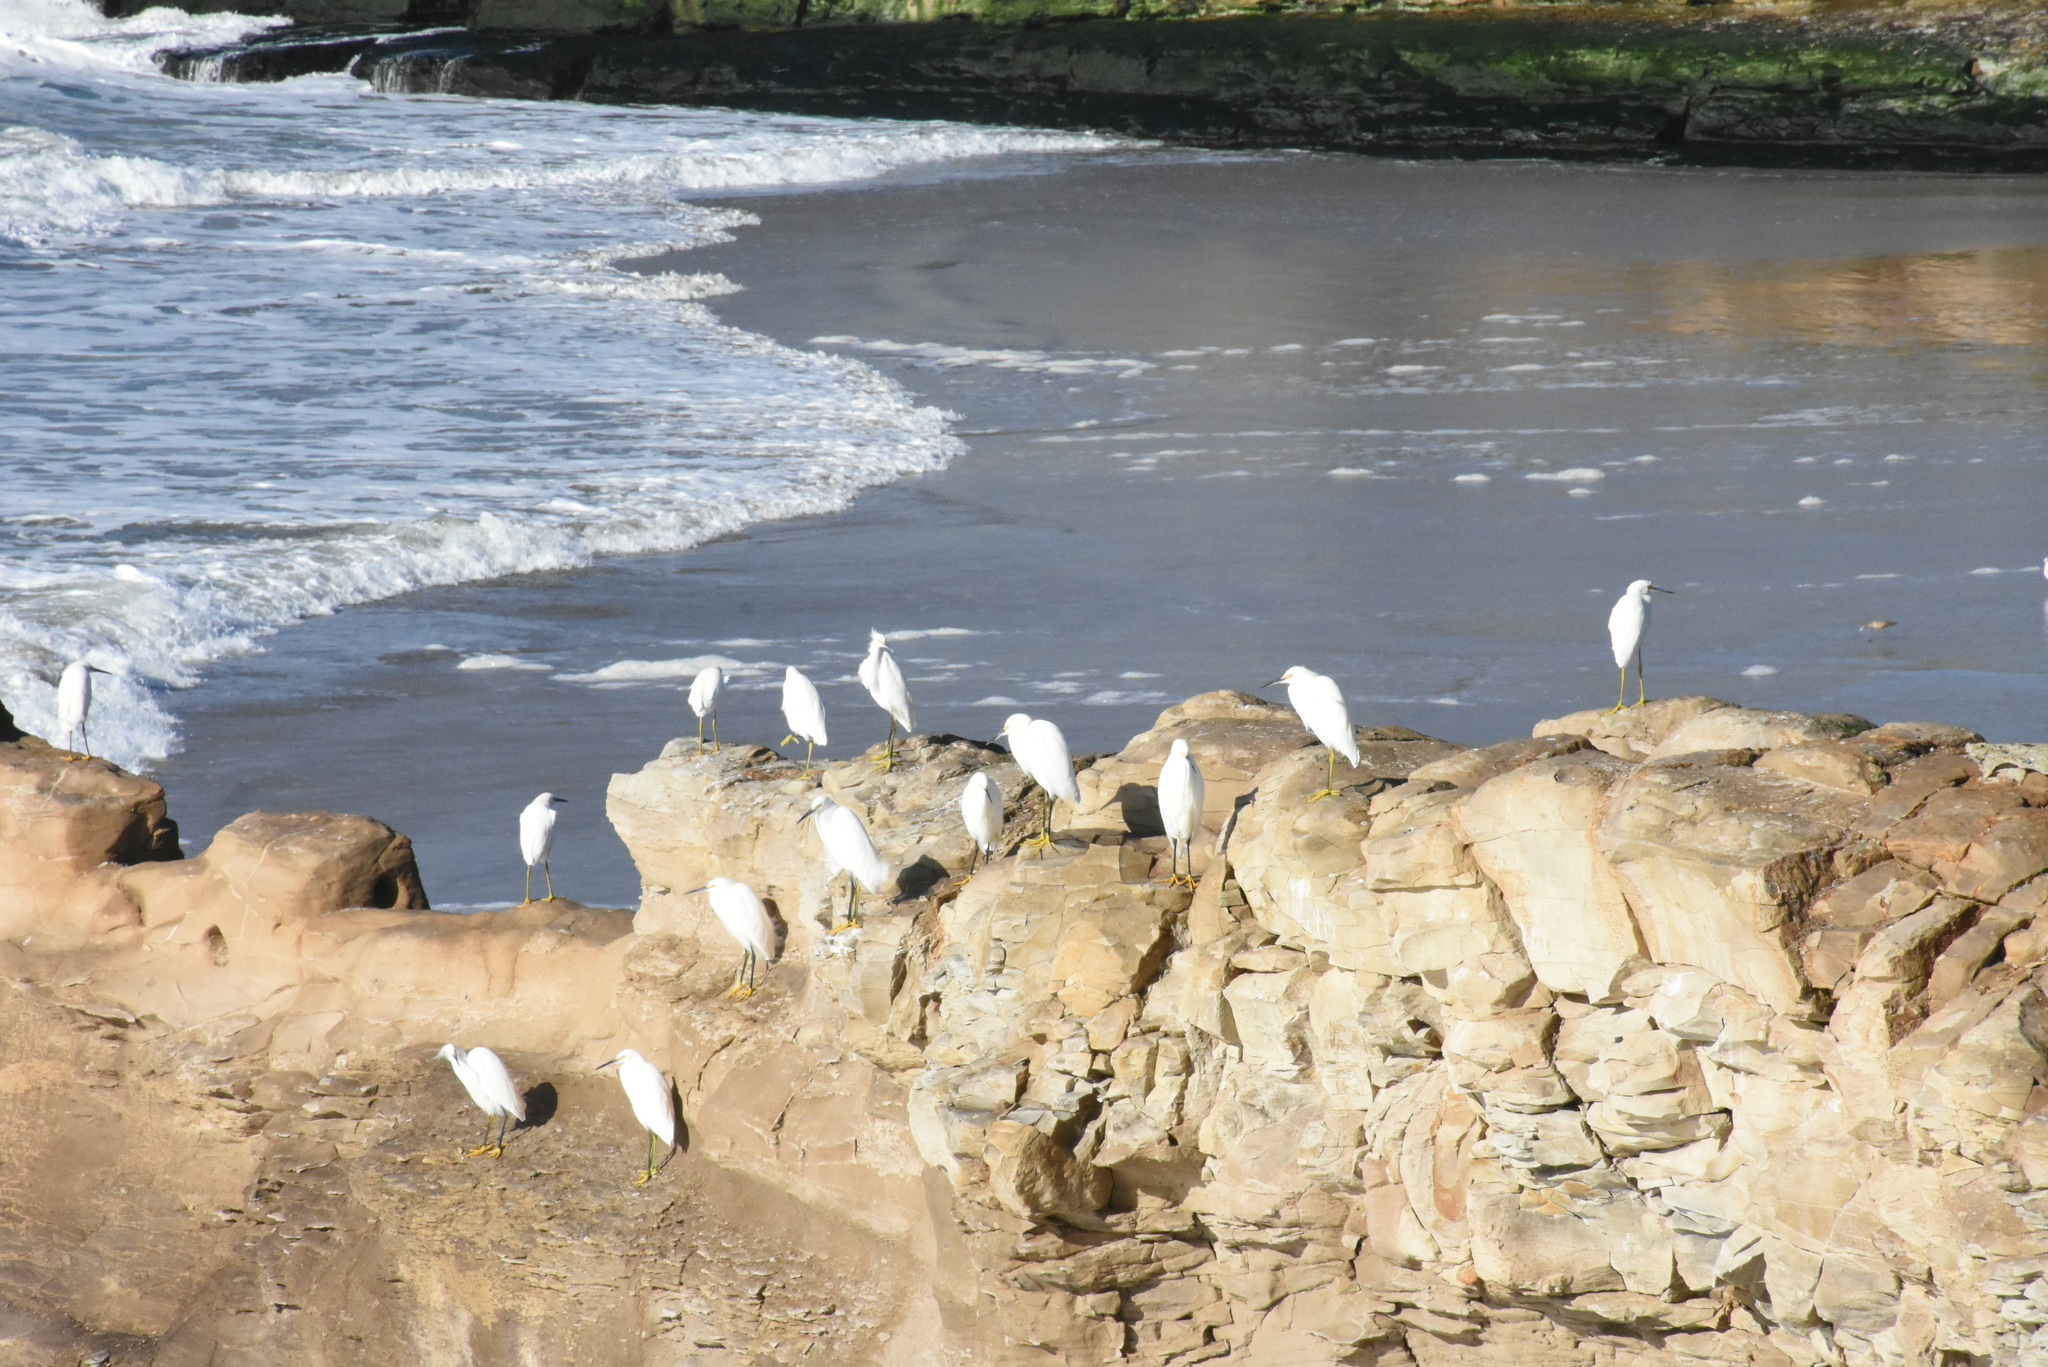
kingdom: Animalia
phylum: Chordata
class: Aves
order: Pelecaniformes
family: Ardeidae
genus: Egretta
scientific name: Egretta thula
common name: Snowy egret
